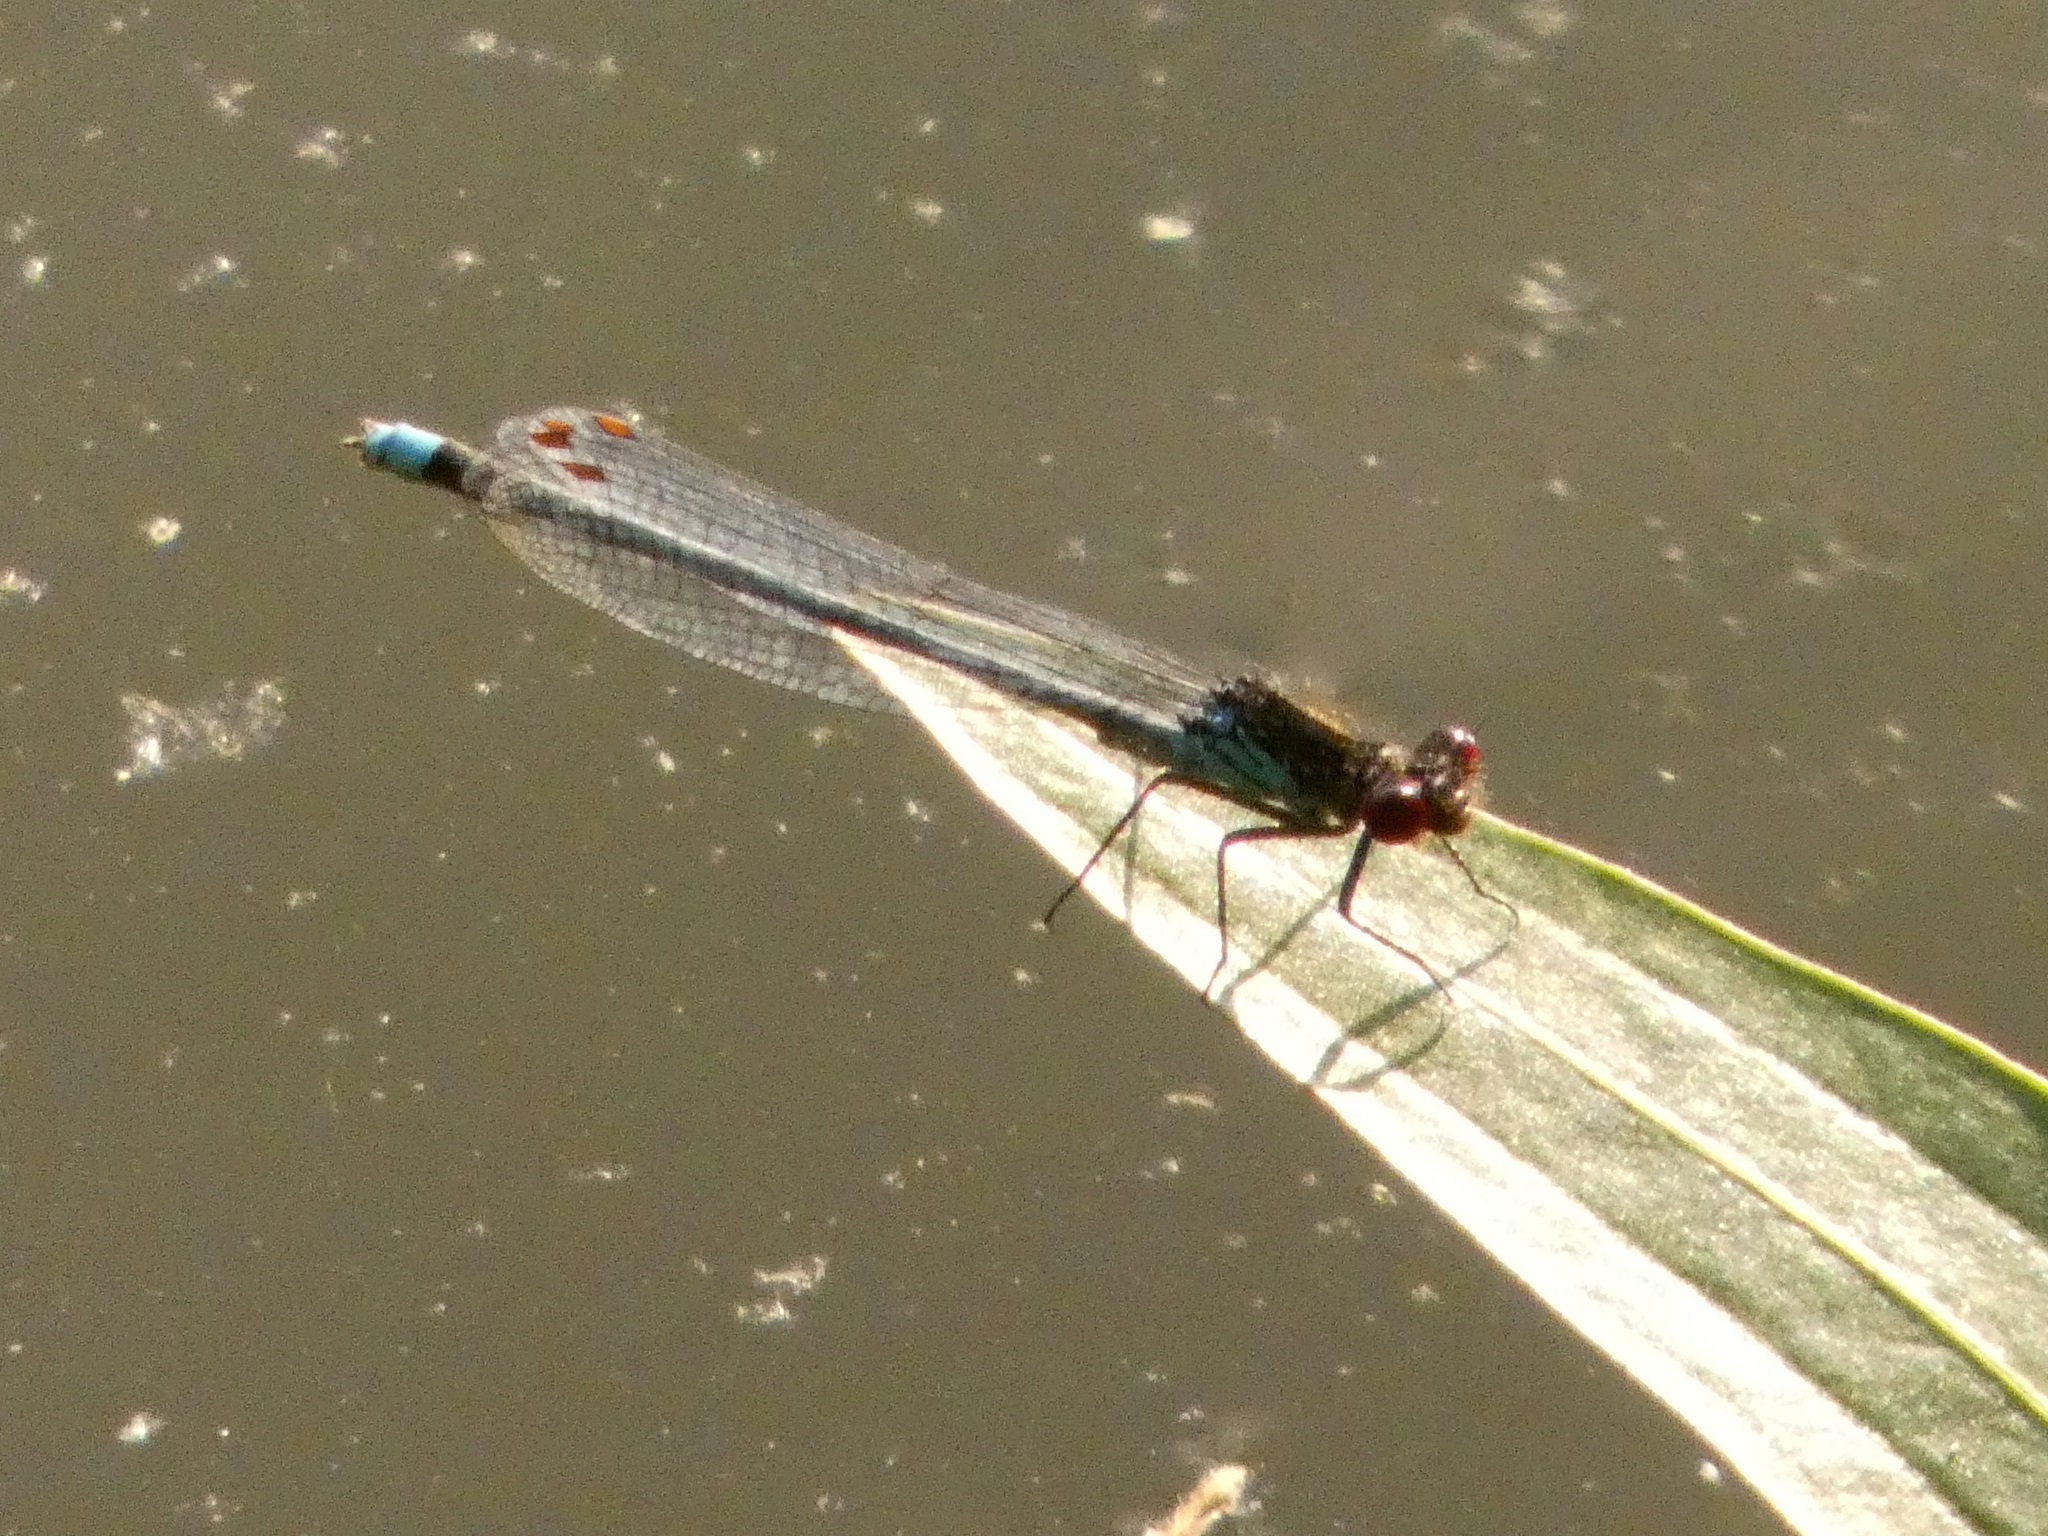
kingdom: Animalia
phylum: Arthropoda
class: Insecta
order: Odonata
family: Coenagrionidae
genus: Erythromma
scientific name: Erythromma najas
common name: Red-eyed damselfly
